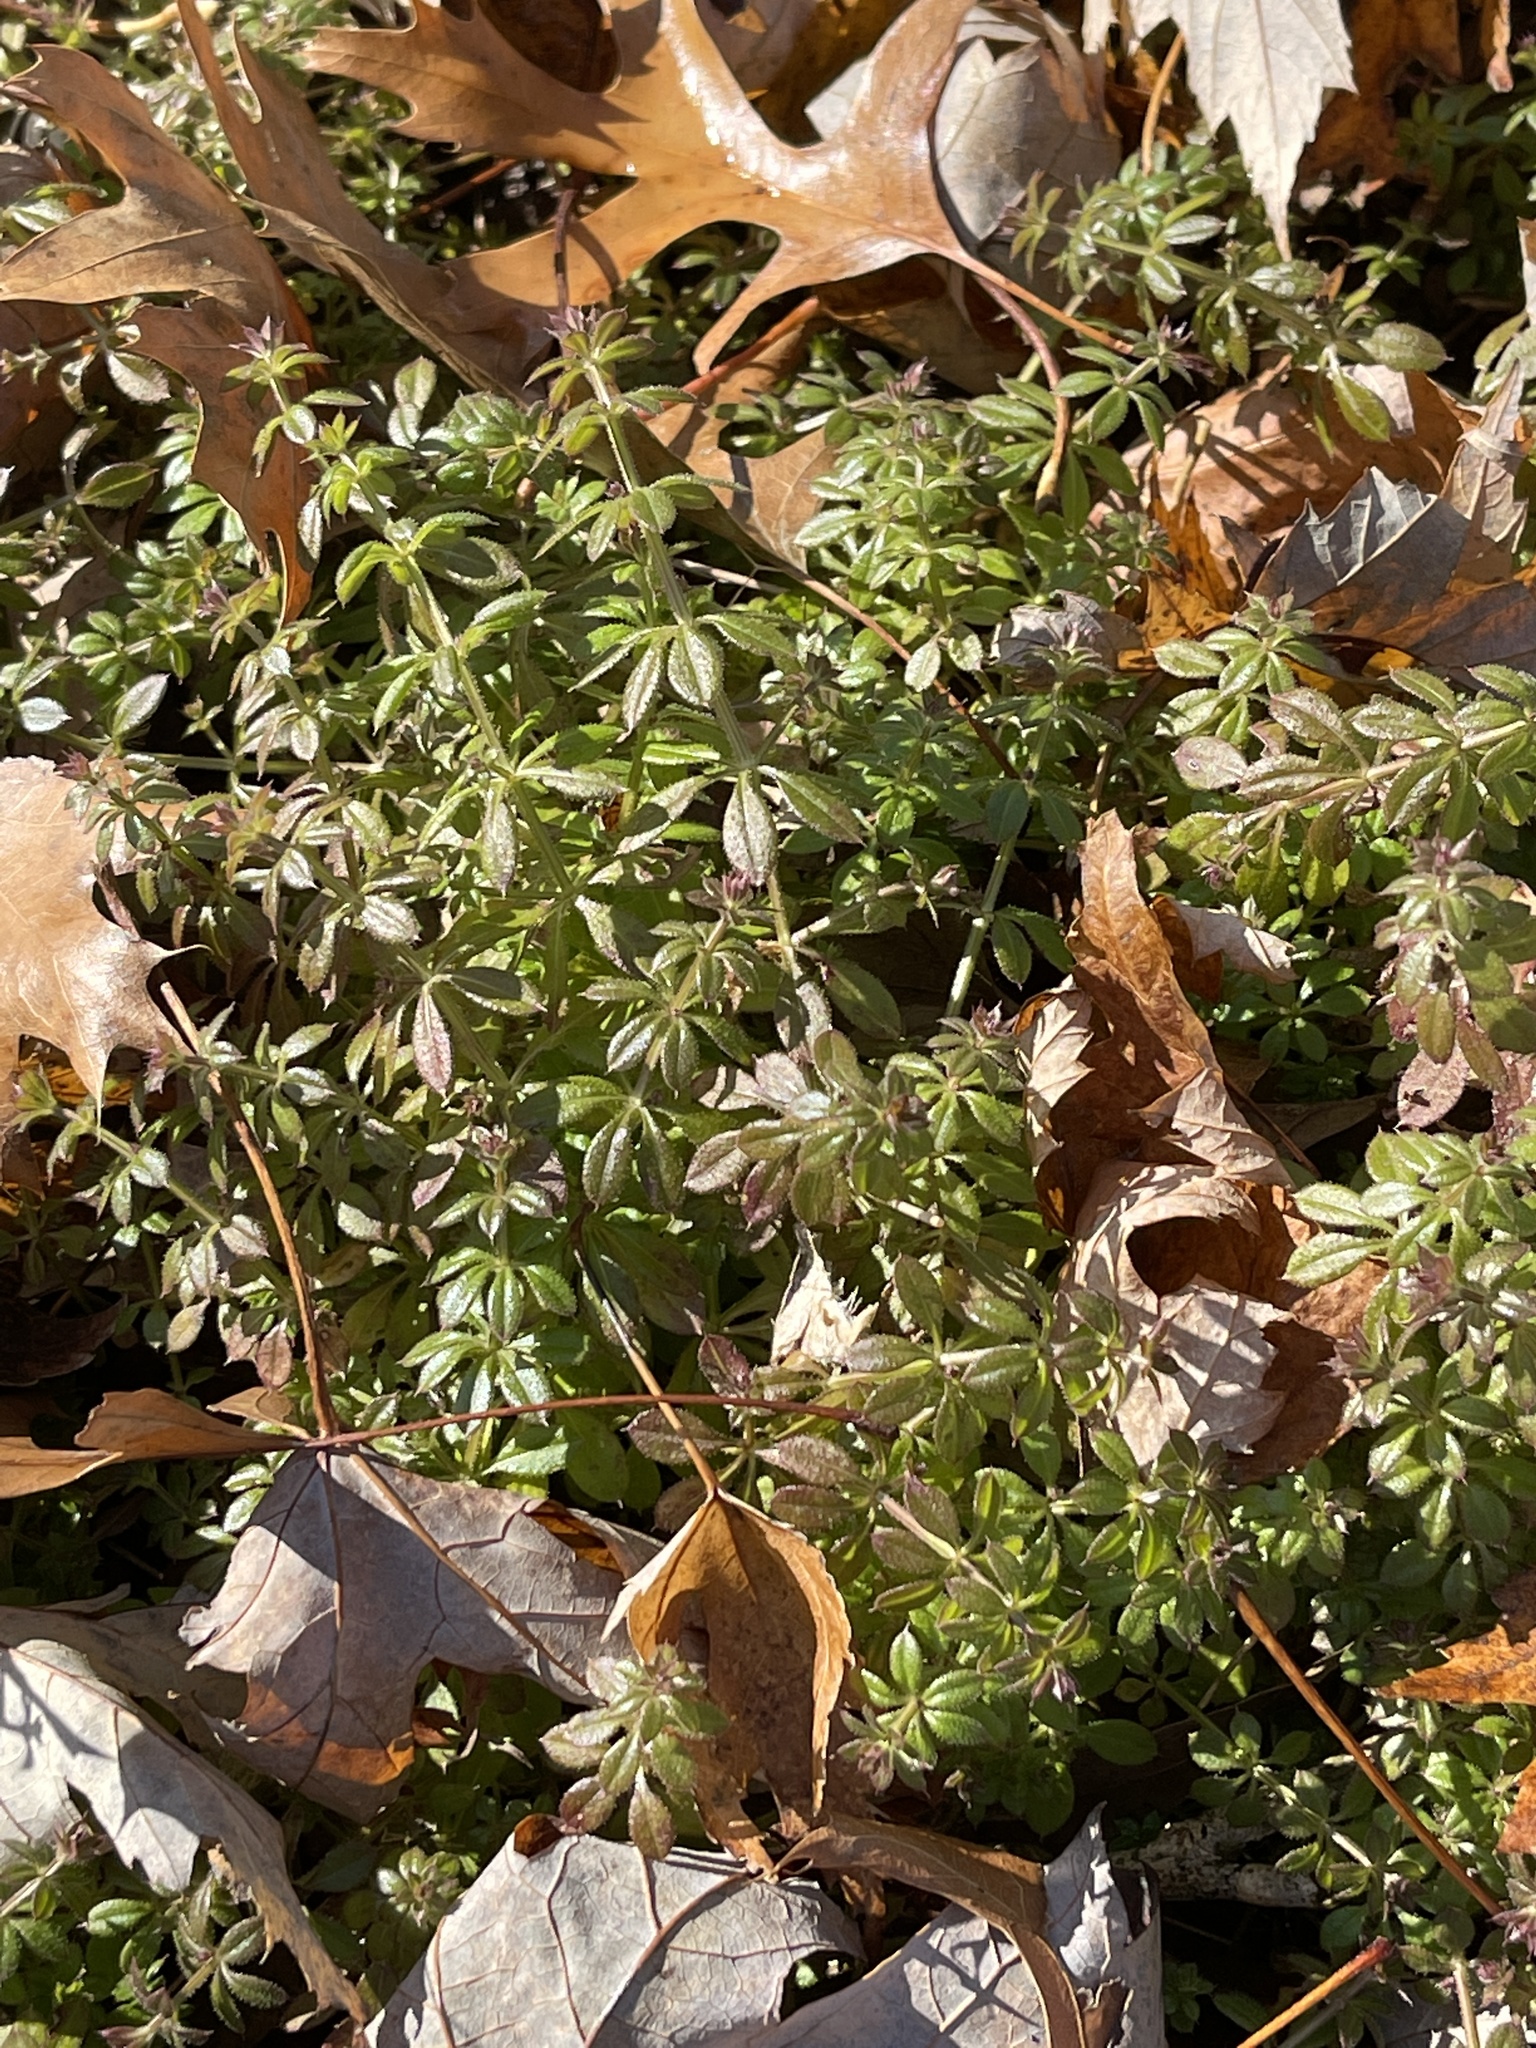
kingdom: Plantae
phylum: Tracheophyta
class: Magnoliopsida
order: Gentianales
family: Rubiaceae
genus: Galium
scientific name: Galium aparine
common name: Cleavers
